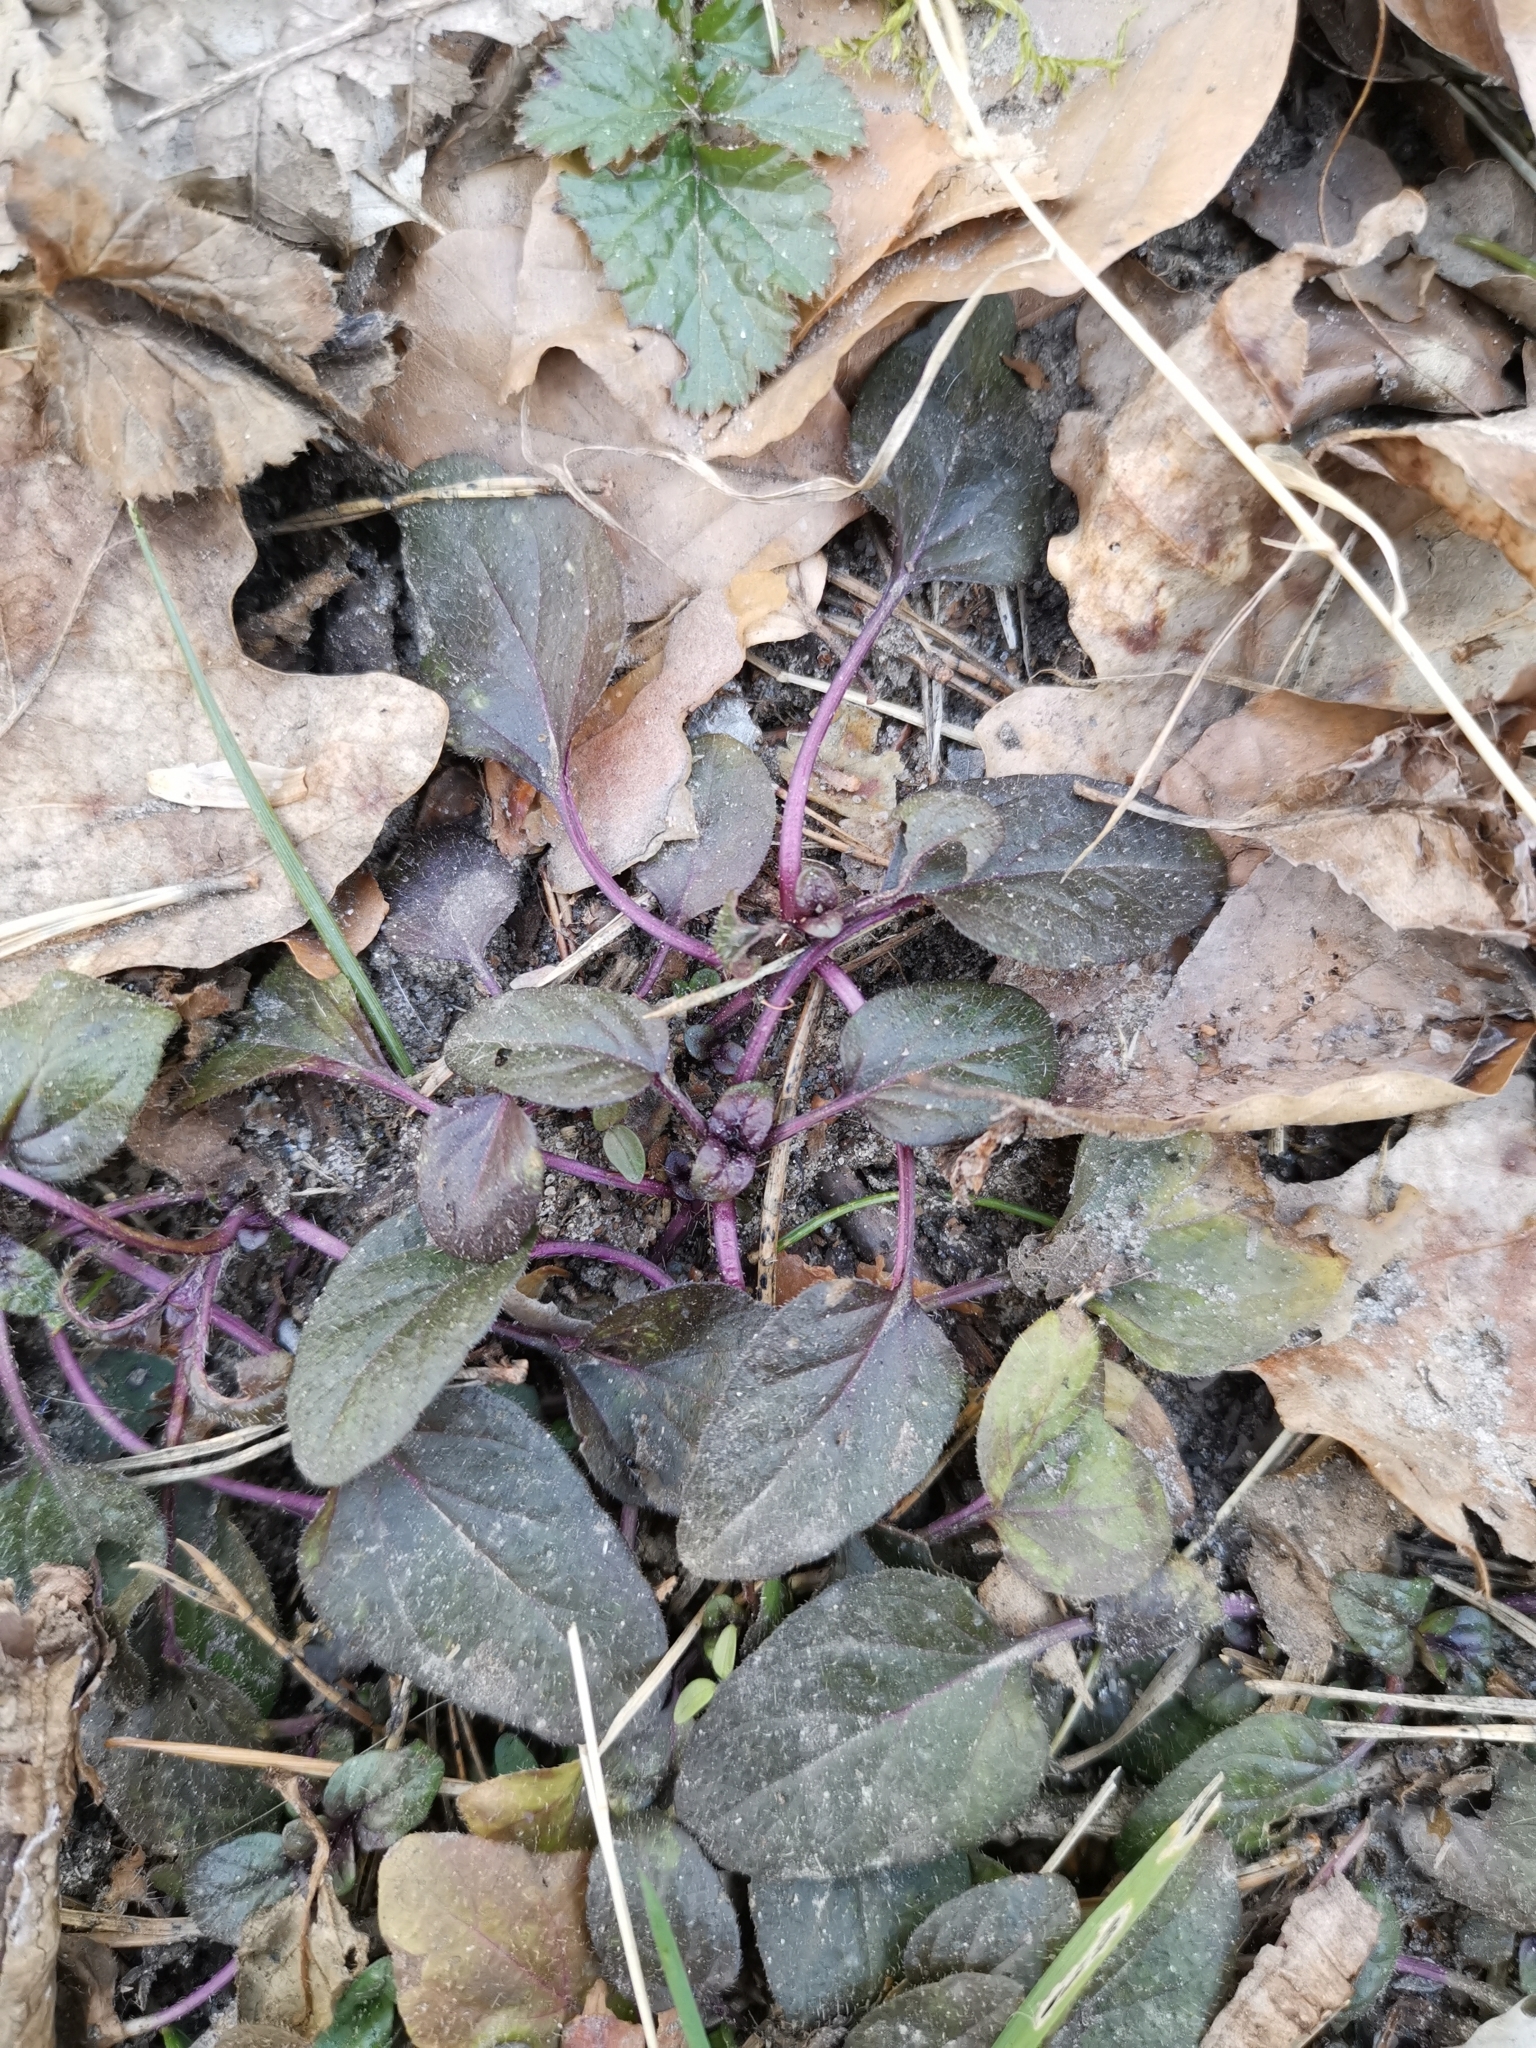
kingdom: Plantae
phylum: Tracheophyta
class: Magnoliopsida
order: Lamiales
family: Lamiaceae
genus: Ajuga
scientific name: Ajuga reptans
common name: Bugle
